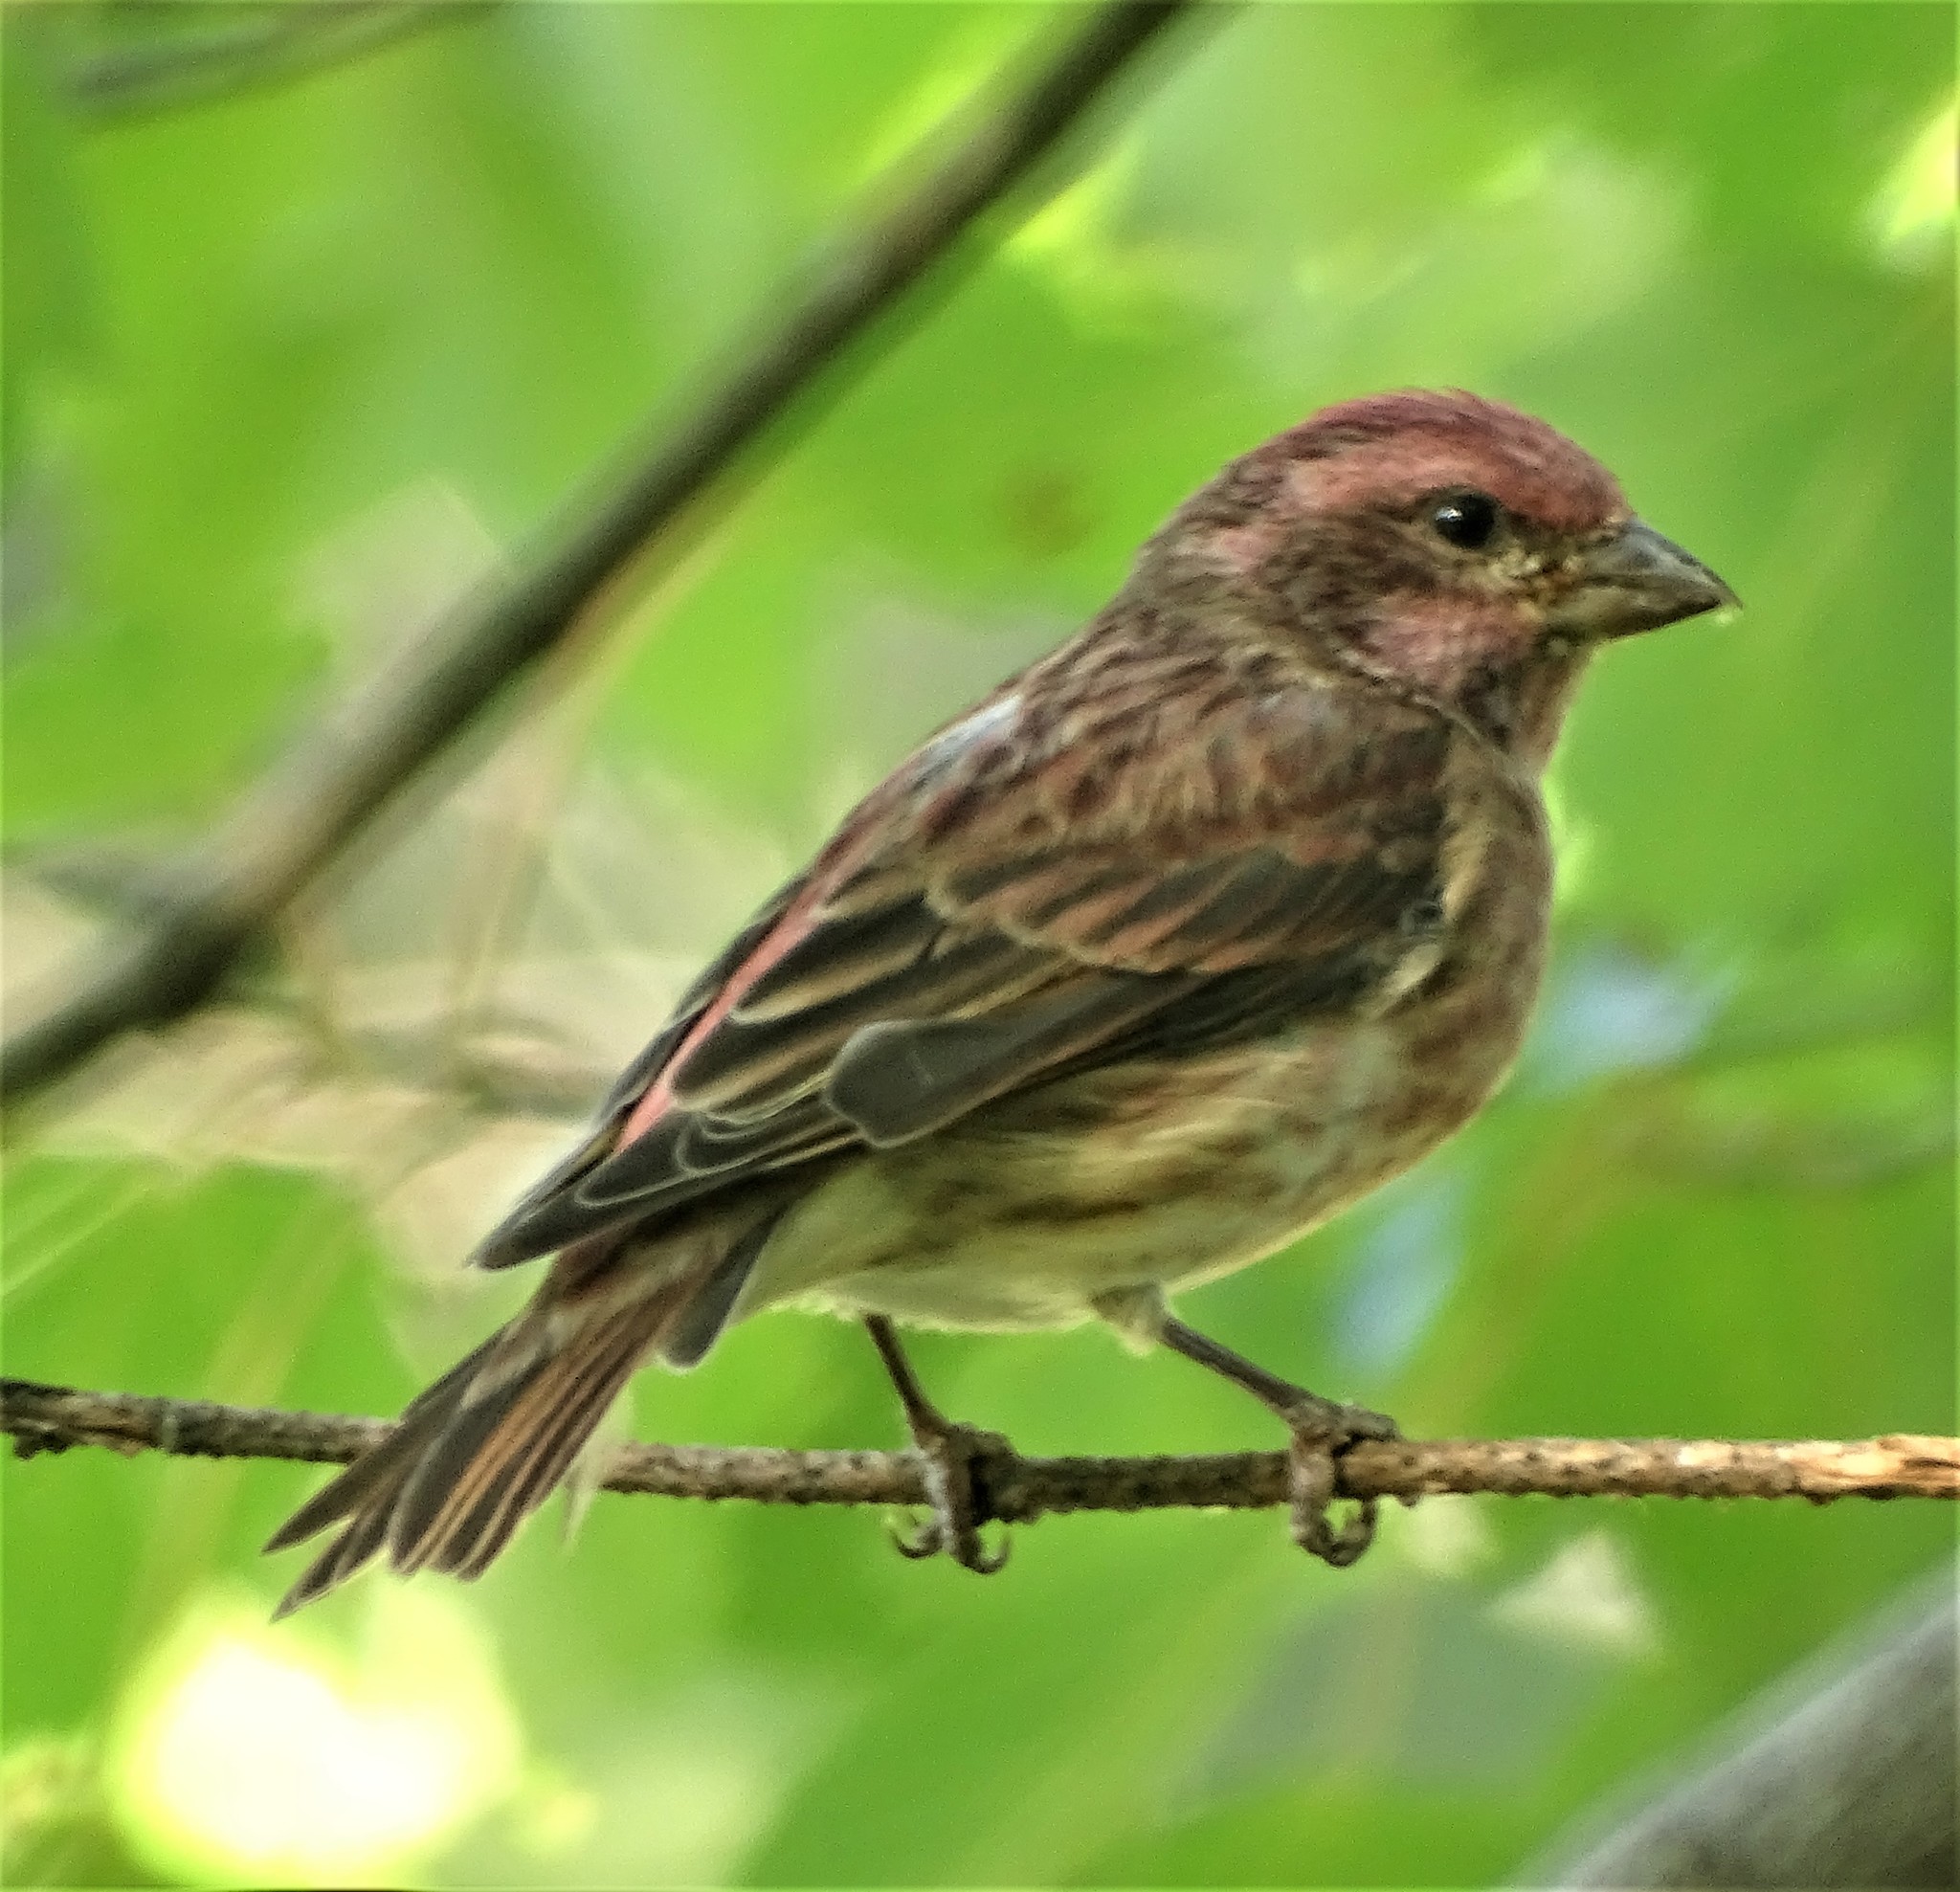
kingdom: Animalia
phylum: Chordata
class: Aves
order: Passeriformes
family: Fringillidae
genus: Haemorhous
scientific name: Haemorhous purpureus
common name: Purple finch
